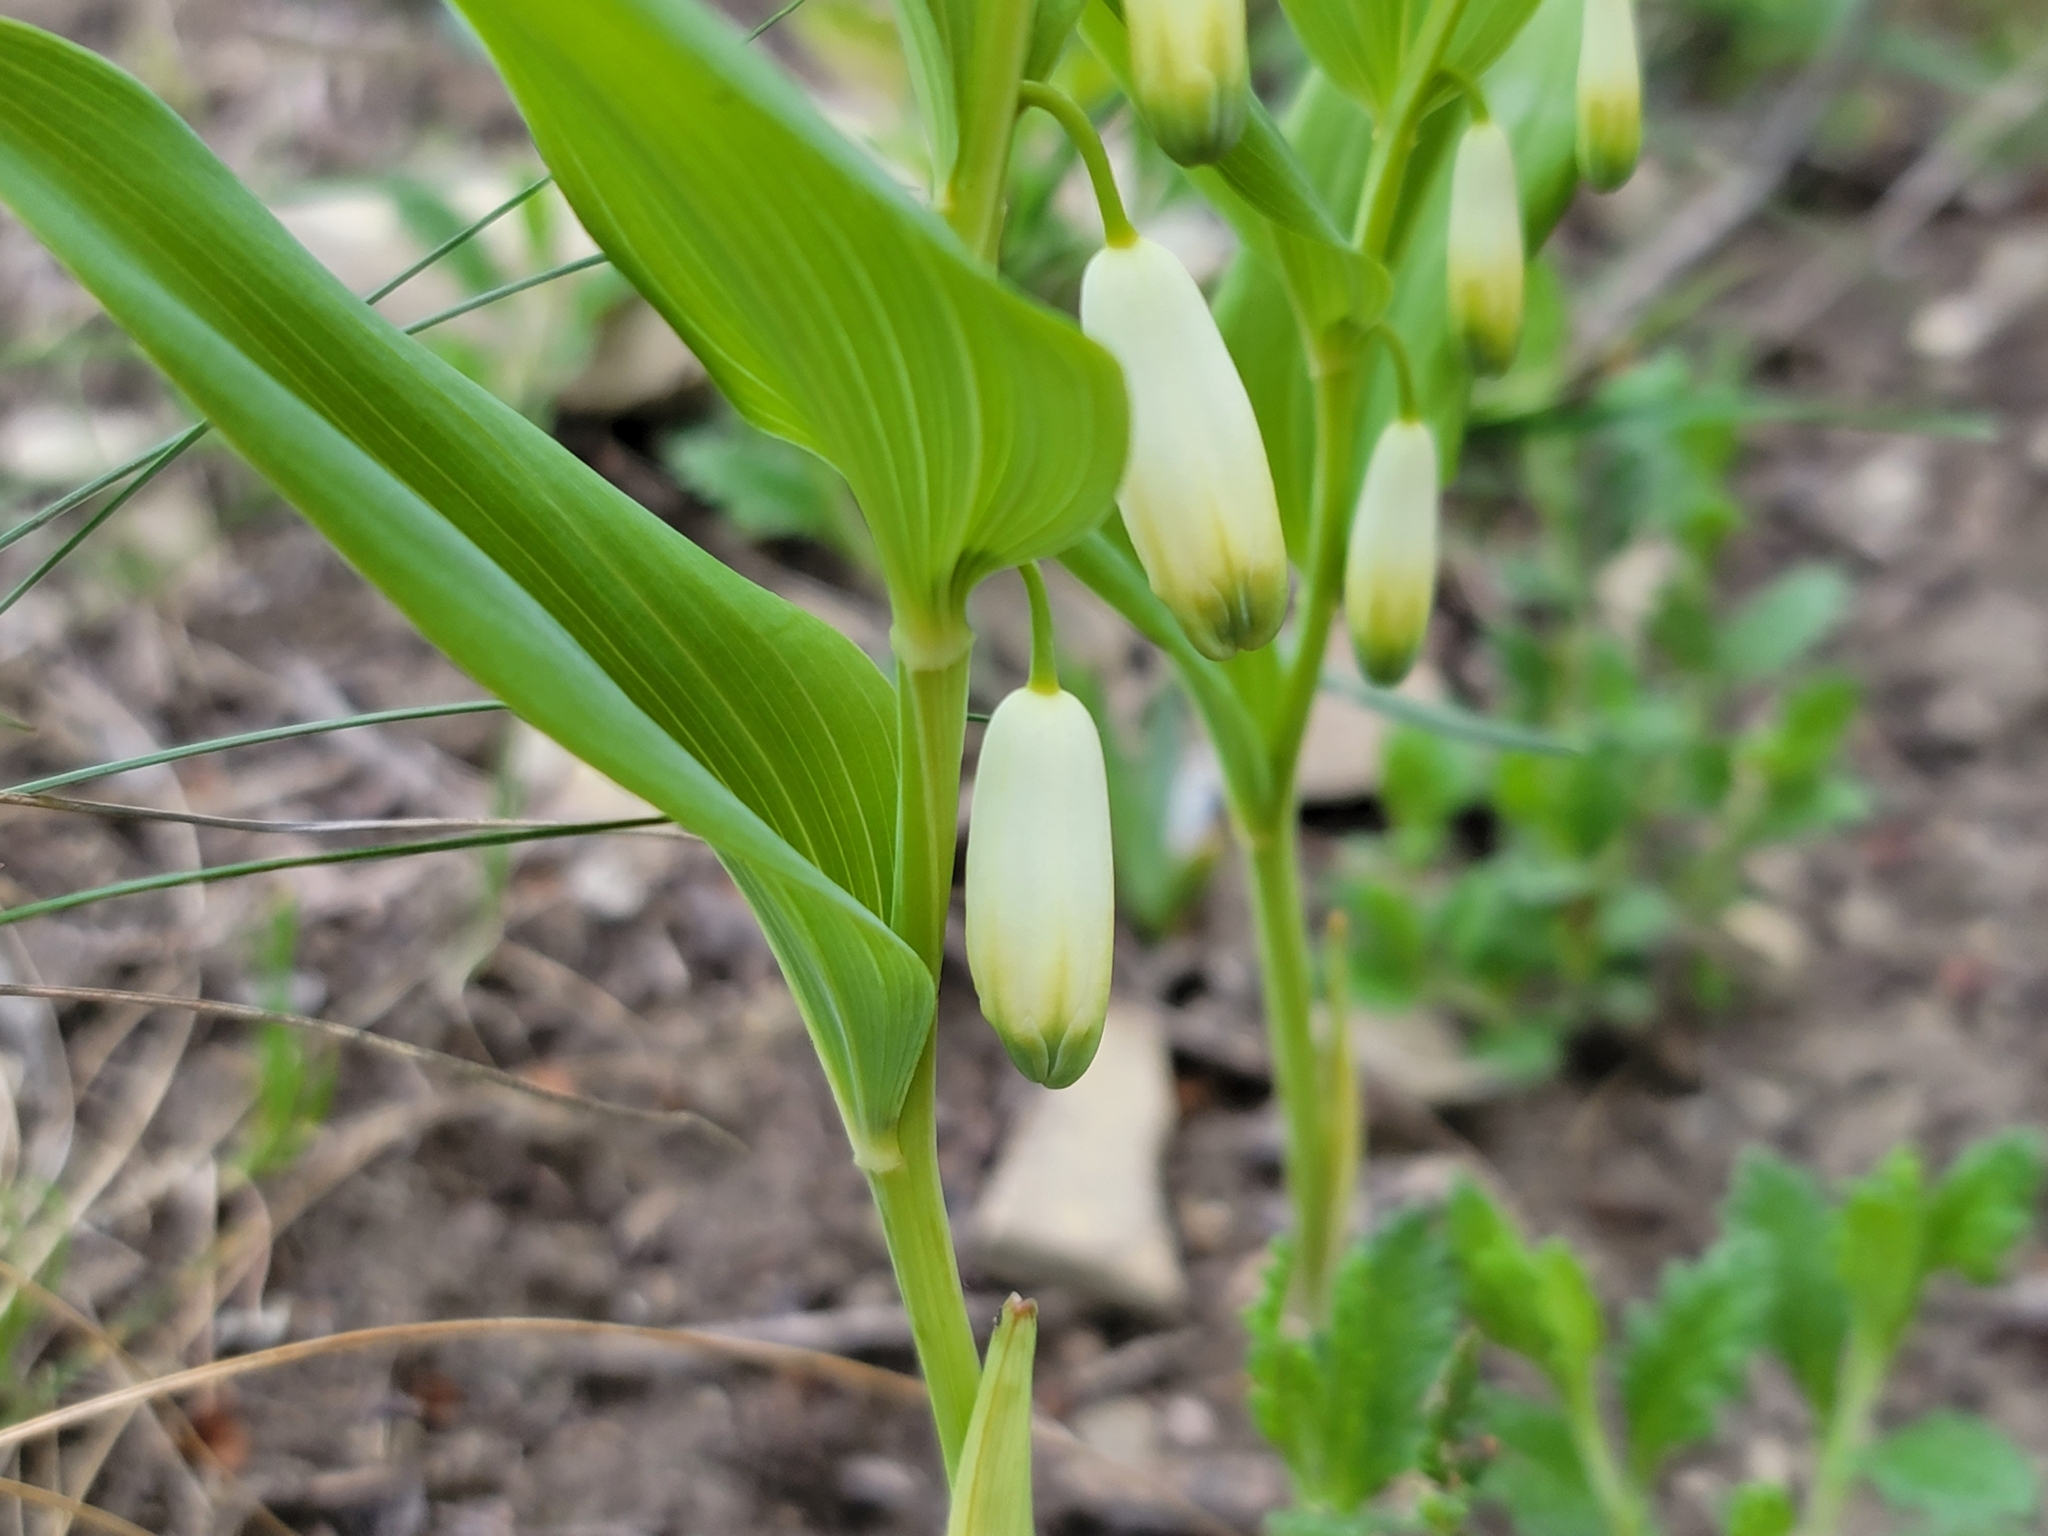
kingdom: Plantae
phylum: Tracheophyta
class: Liliopsida
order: Asparagales
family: Asparagaceae
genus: Polygonatum
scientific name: Polygonatum odoratum
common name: Angular solomon's-seal
